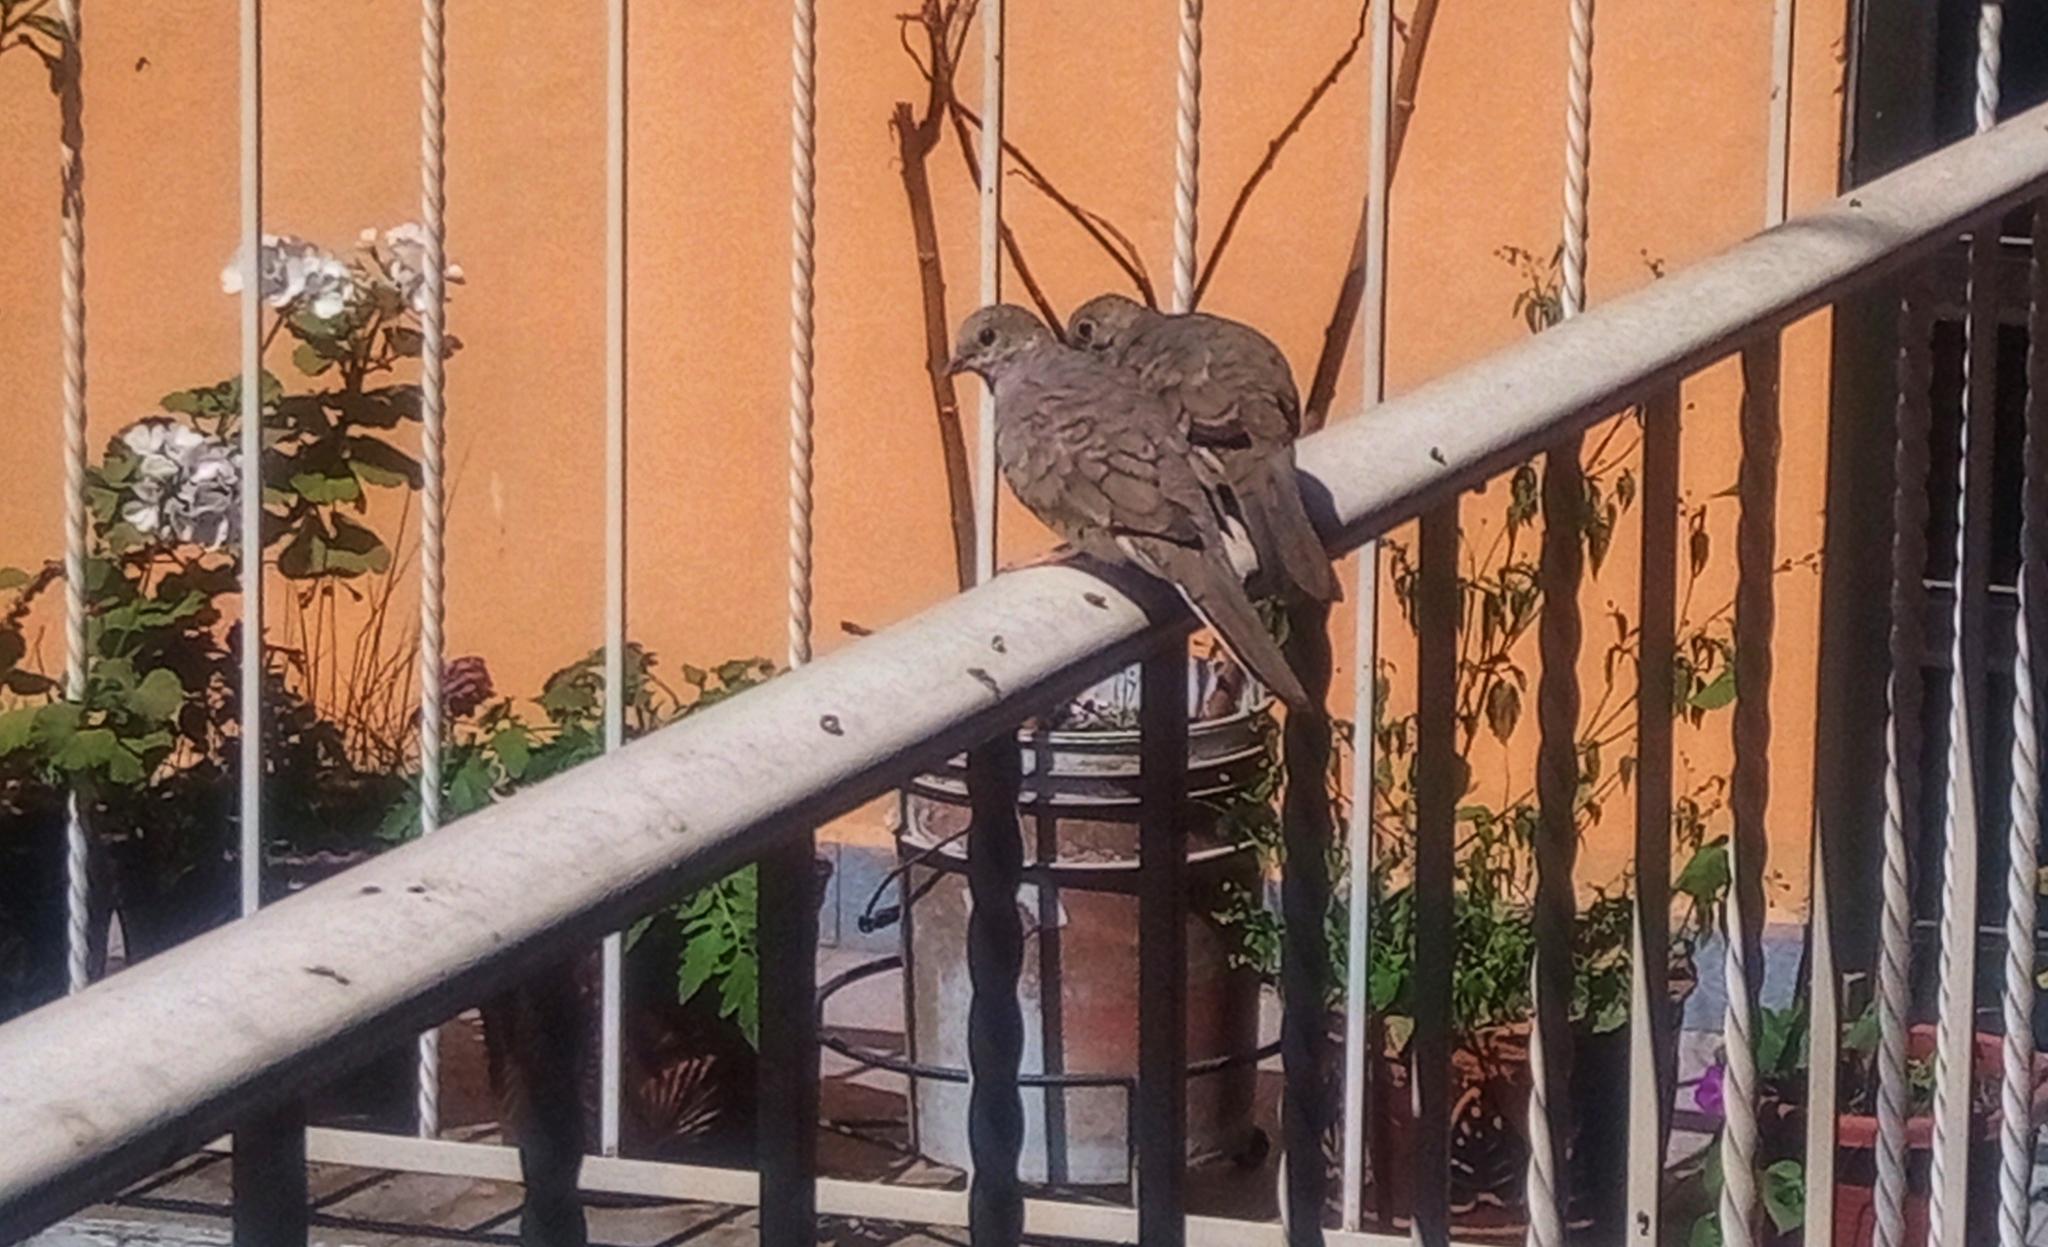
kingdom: Animalia
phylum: Chordata
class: Aves
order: Columbiformes
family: Columbidae
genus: Columbina
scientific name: Columbina inca
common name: Inca dove
